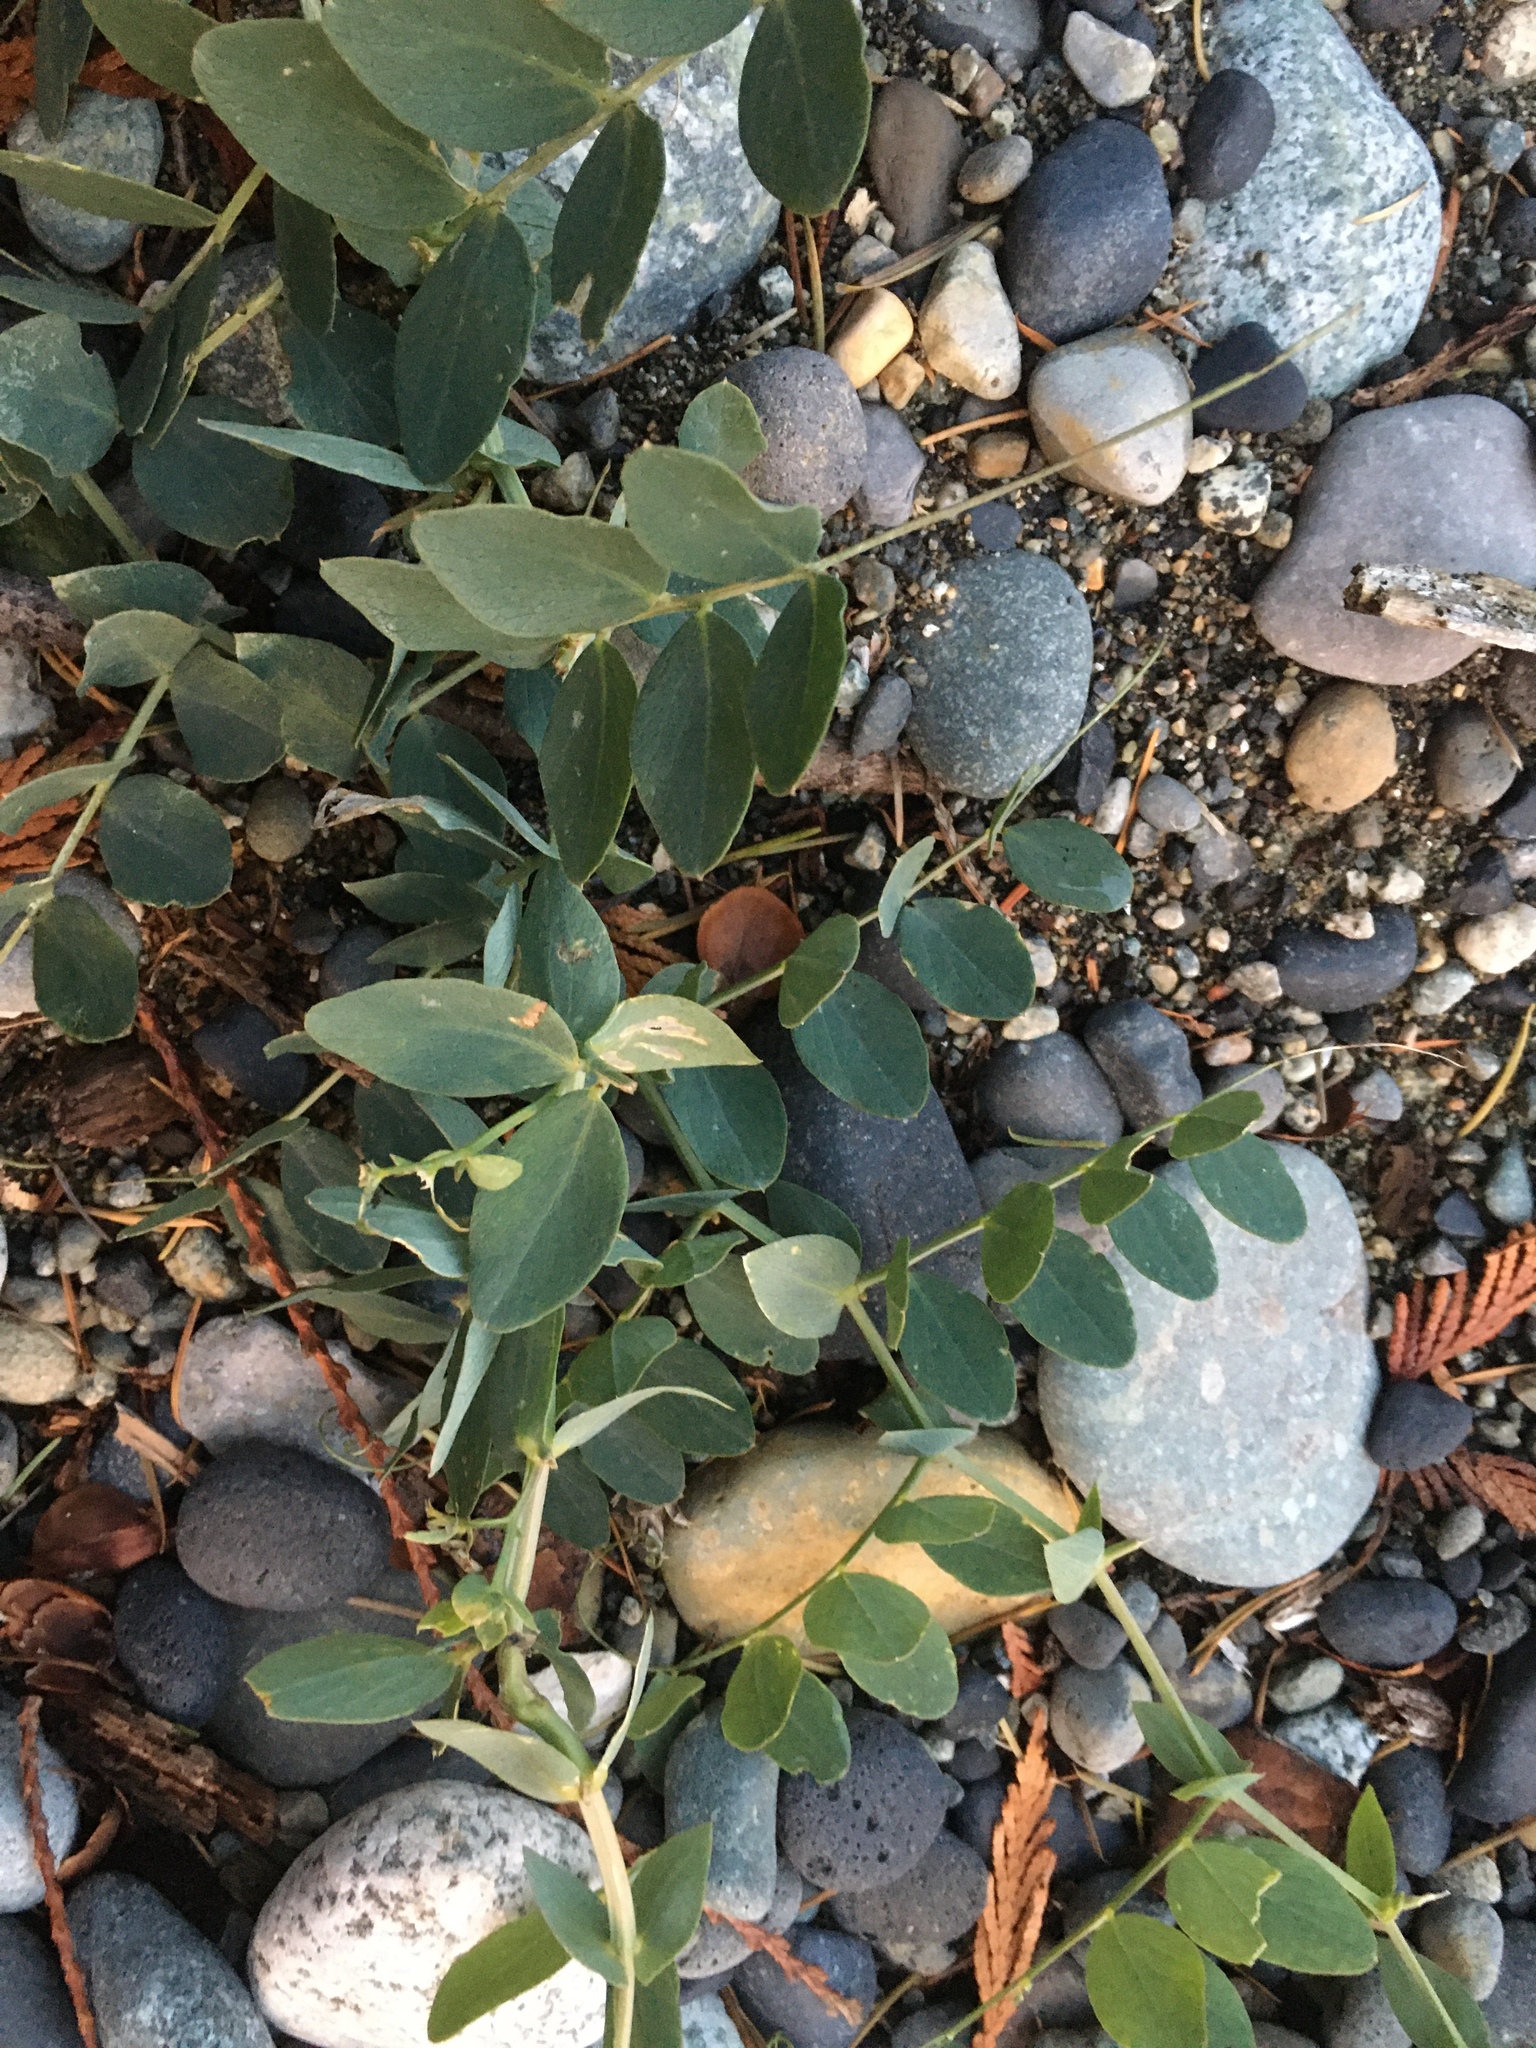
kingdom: Plantae
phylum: Tracheophyta
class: Magnoliopsida
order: Fabales
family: Fabaceae
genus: Lathyrus
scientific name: Lathyrus japonicus
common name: Sea pea
